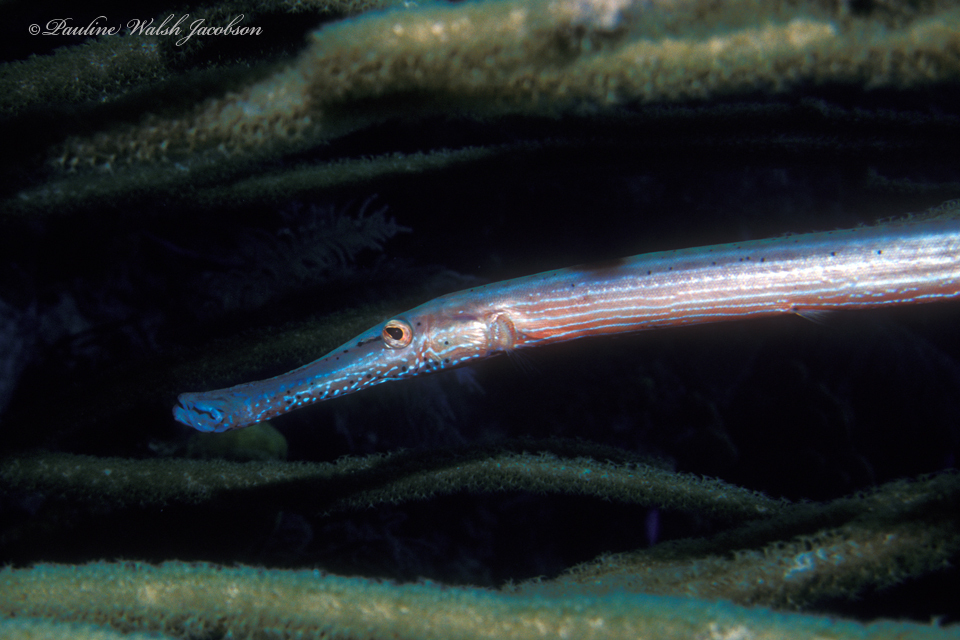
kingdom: Animalia
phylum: Chordata
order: Syngnathiformes
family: Aulostomidae
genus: Aulostomus
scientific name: Aulostomus maculatus
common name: West atlantic trumpetfish
